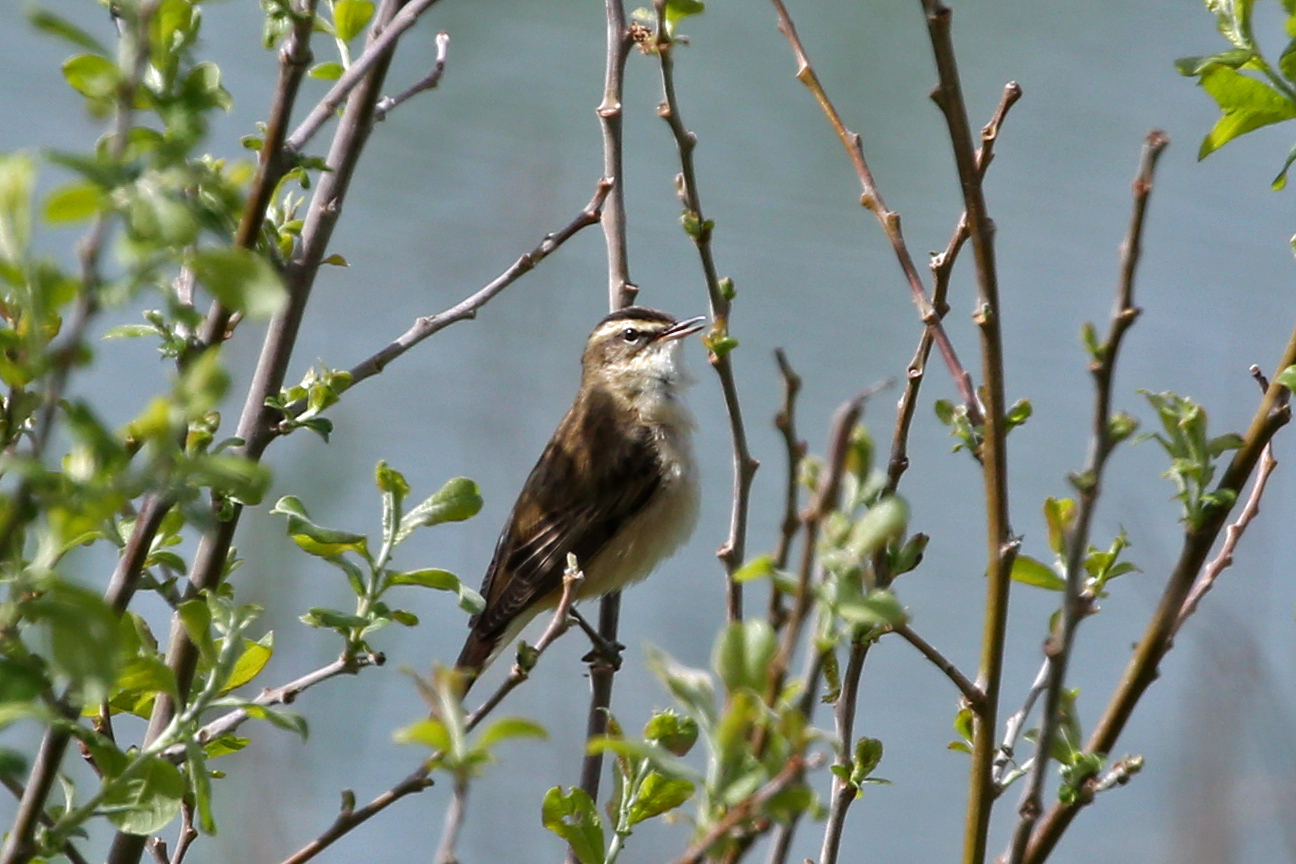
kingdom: Animalia
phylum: Chordata
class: Aves
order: Passeriformes
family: Acrocephalidae
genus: Acrocephalus
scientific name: Acrocephalus schoenobaenus
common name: Sedge warbler
